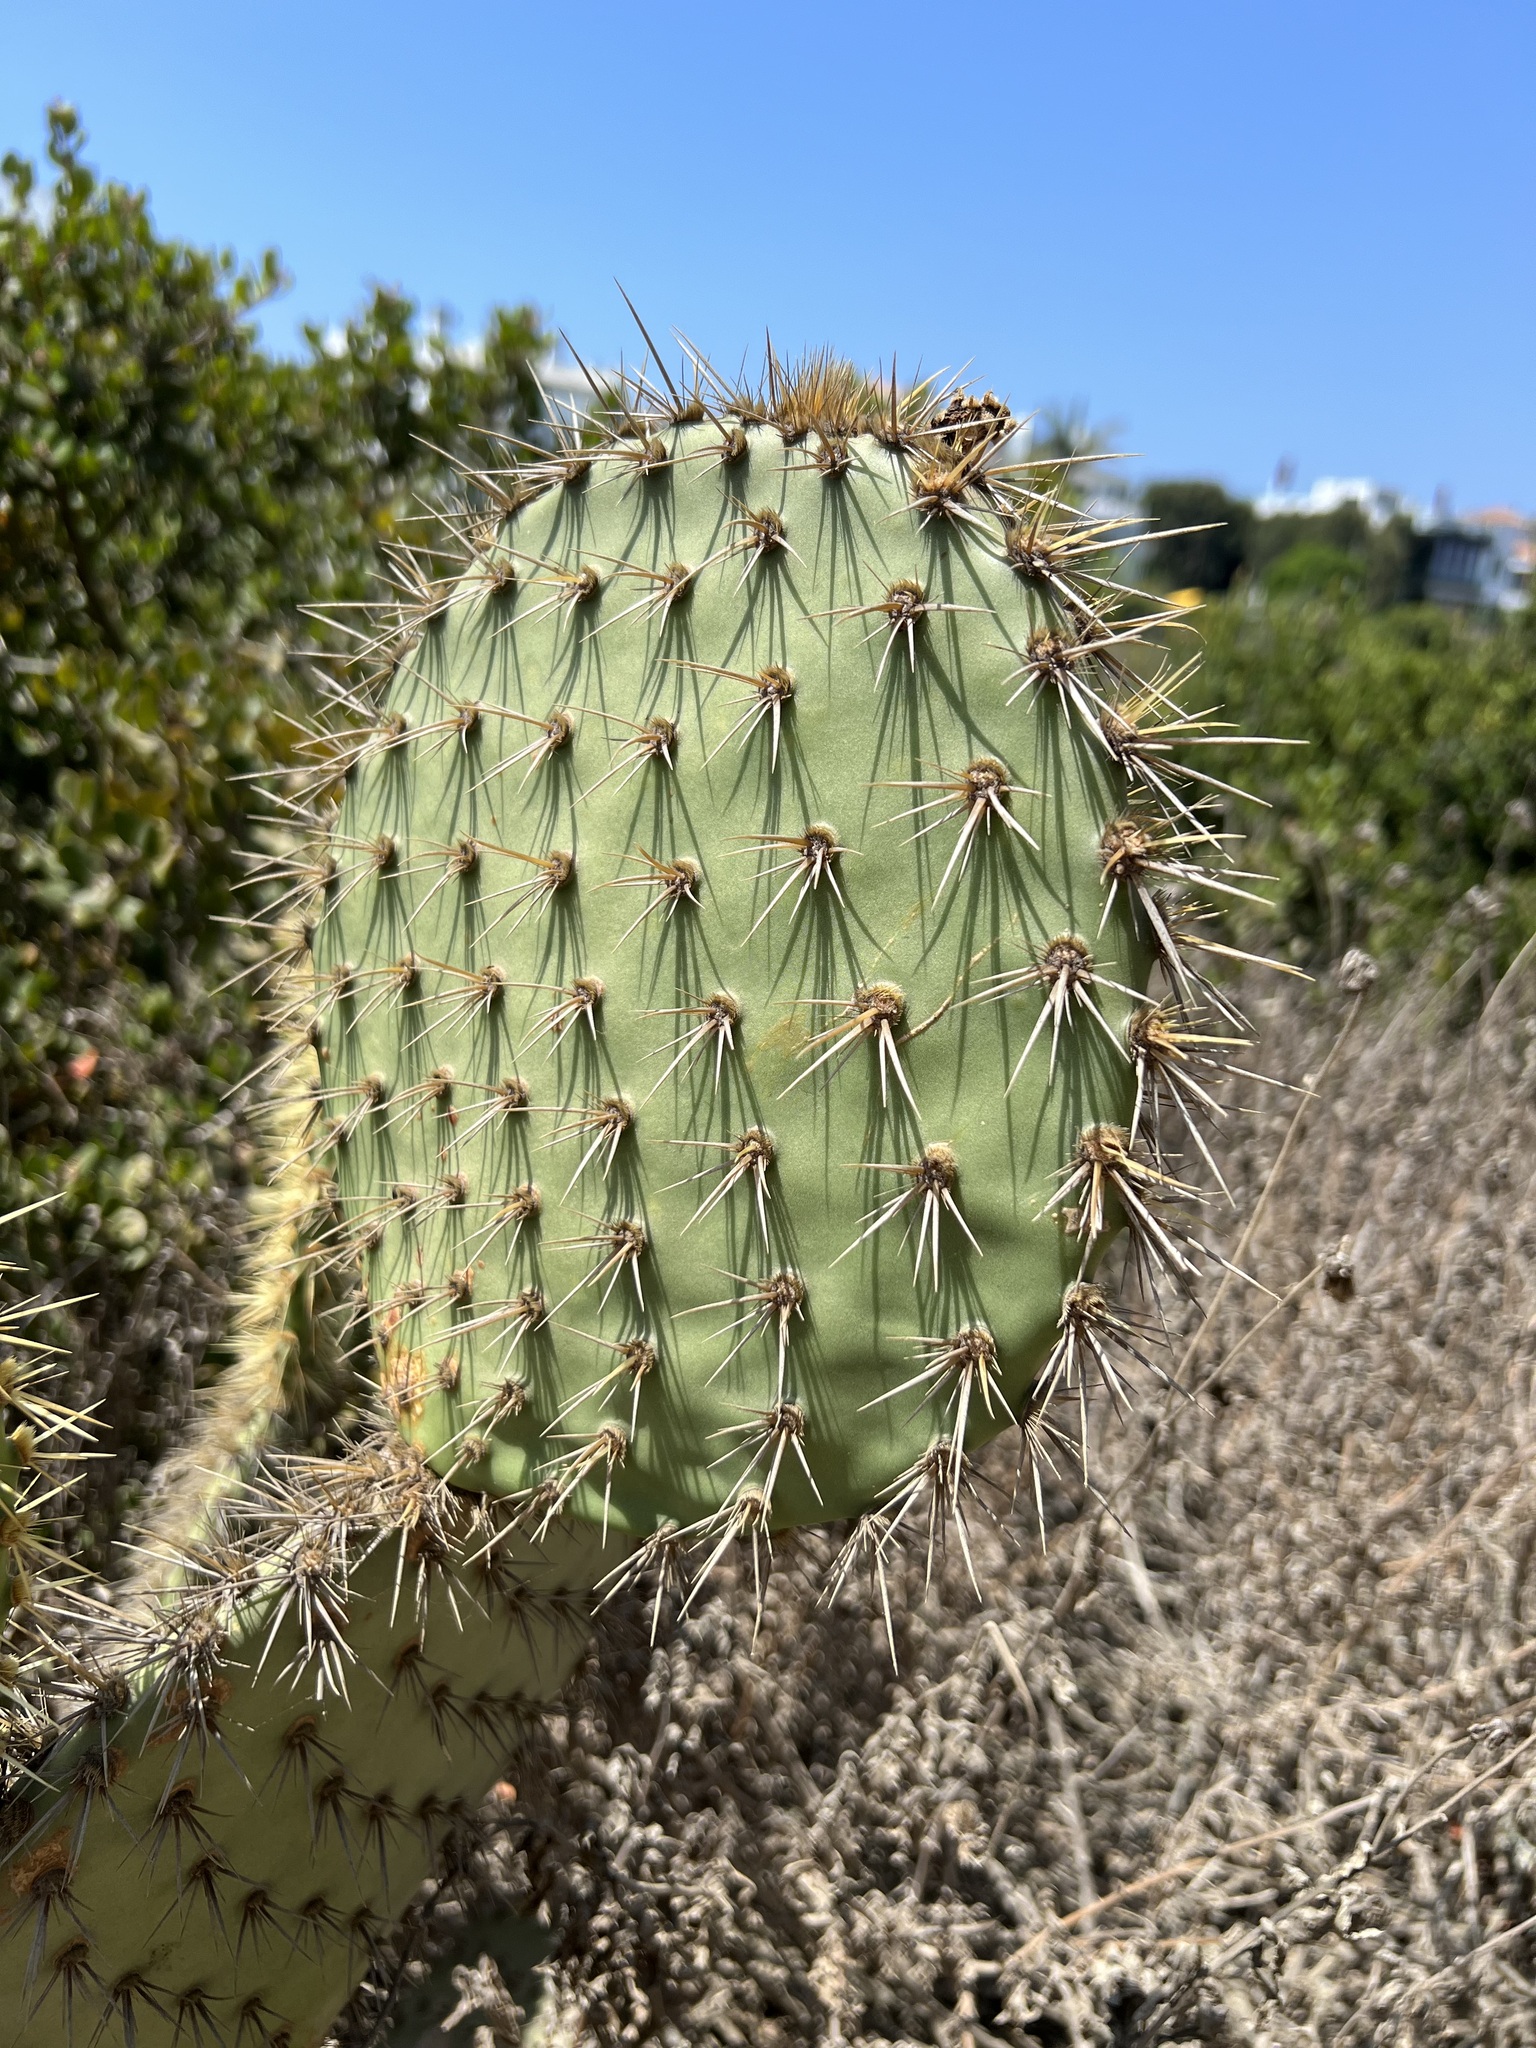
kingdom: Plantae
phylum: Tracheophyta
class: Magnoliopsida
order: Caryophyllales
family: Cactaceae
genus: Opuntia
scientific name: Opuntia oricola
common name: Chaparral prickly-pear
